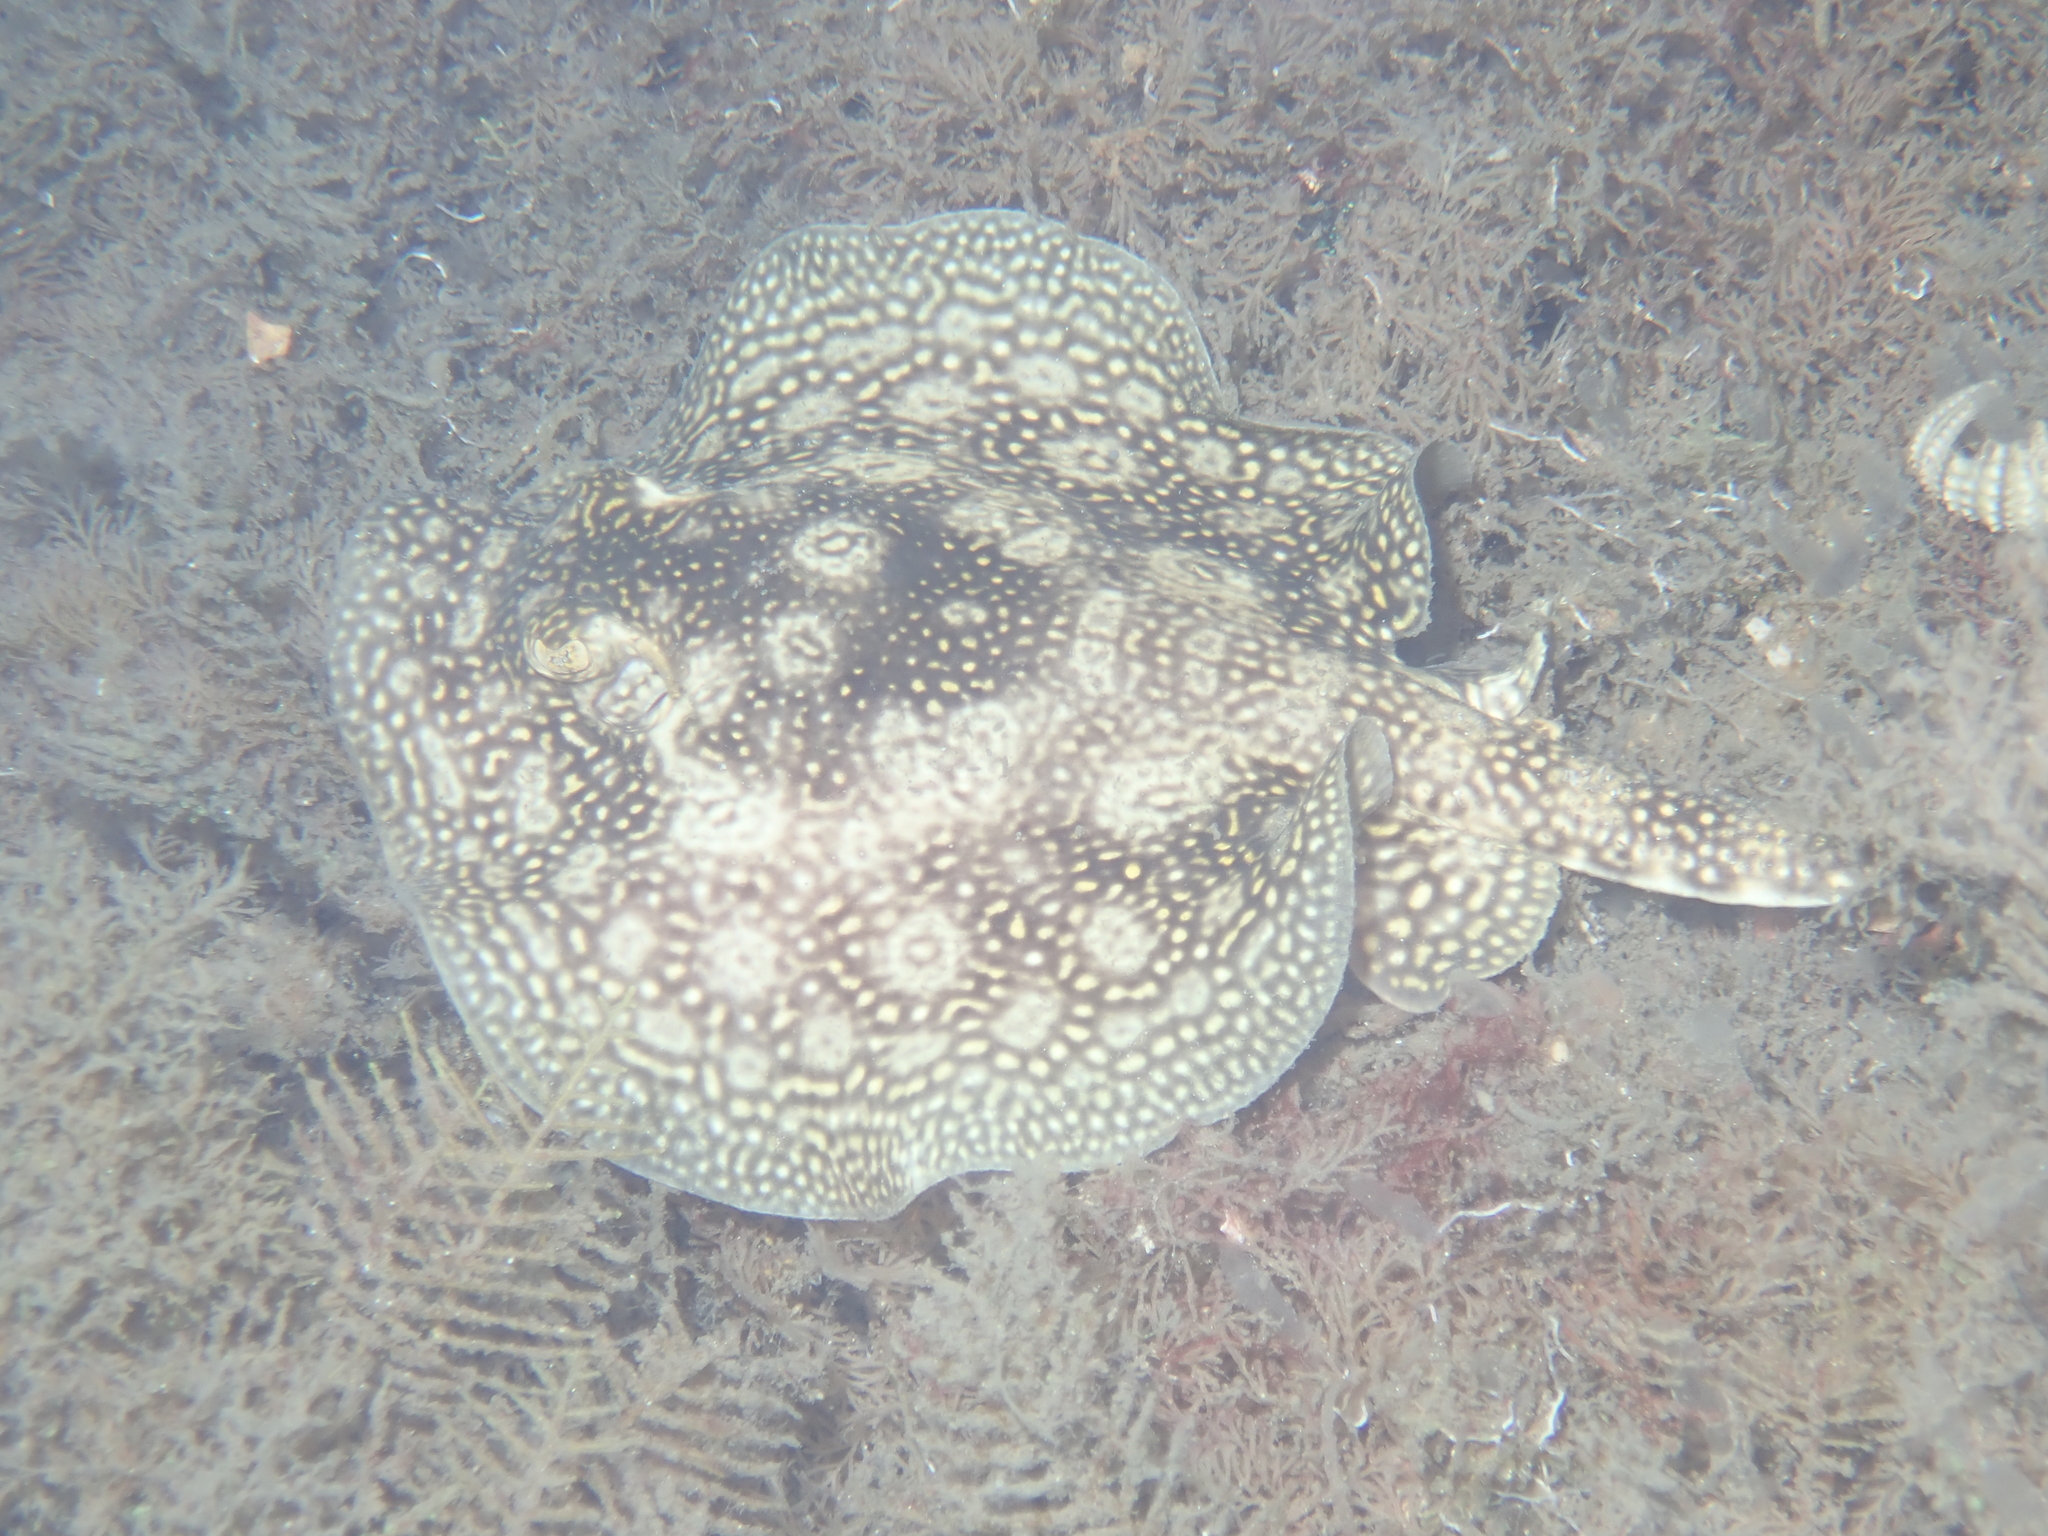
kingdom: Animalia
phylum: Chordata
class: Elasmobranchii
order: Myliobatiformes
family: Urotrygonidae
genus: Urobatis
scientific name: Urobatis jamaicensis
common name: Yellow stingray
